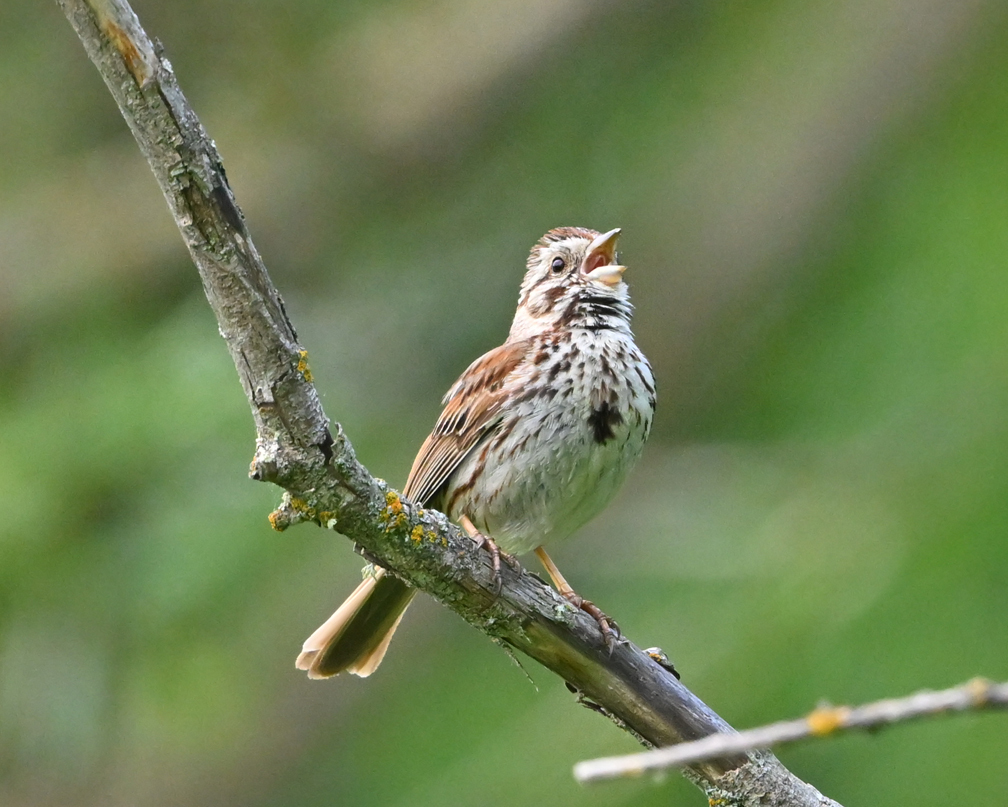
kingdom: Animalia
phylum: Chordata
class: Aves
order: Passeriformes
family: Passerellidae
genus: Melospiza
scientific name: Melospiza melodia
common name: Song sparrow
